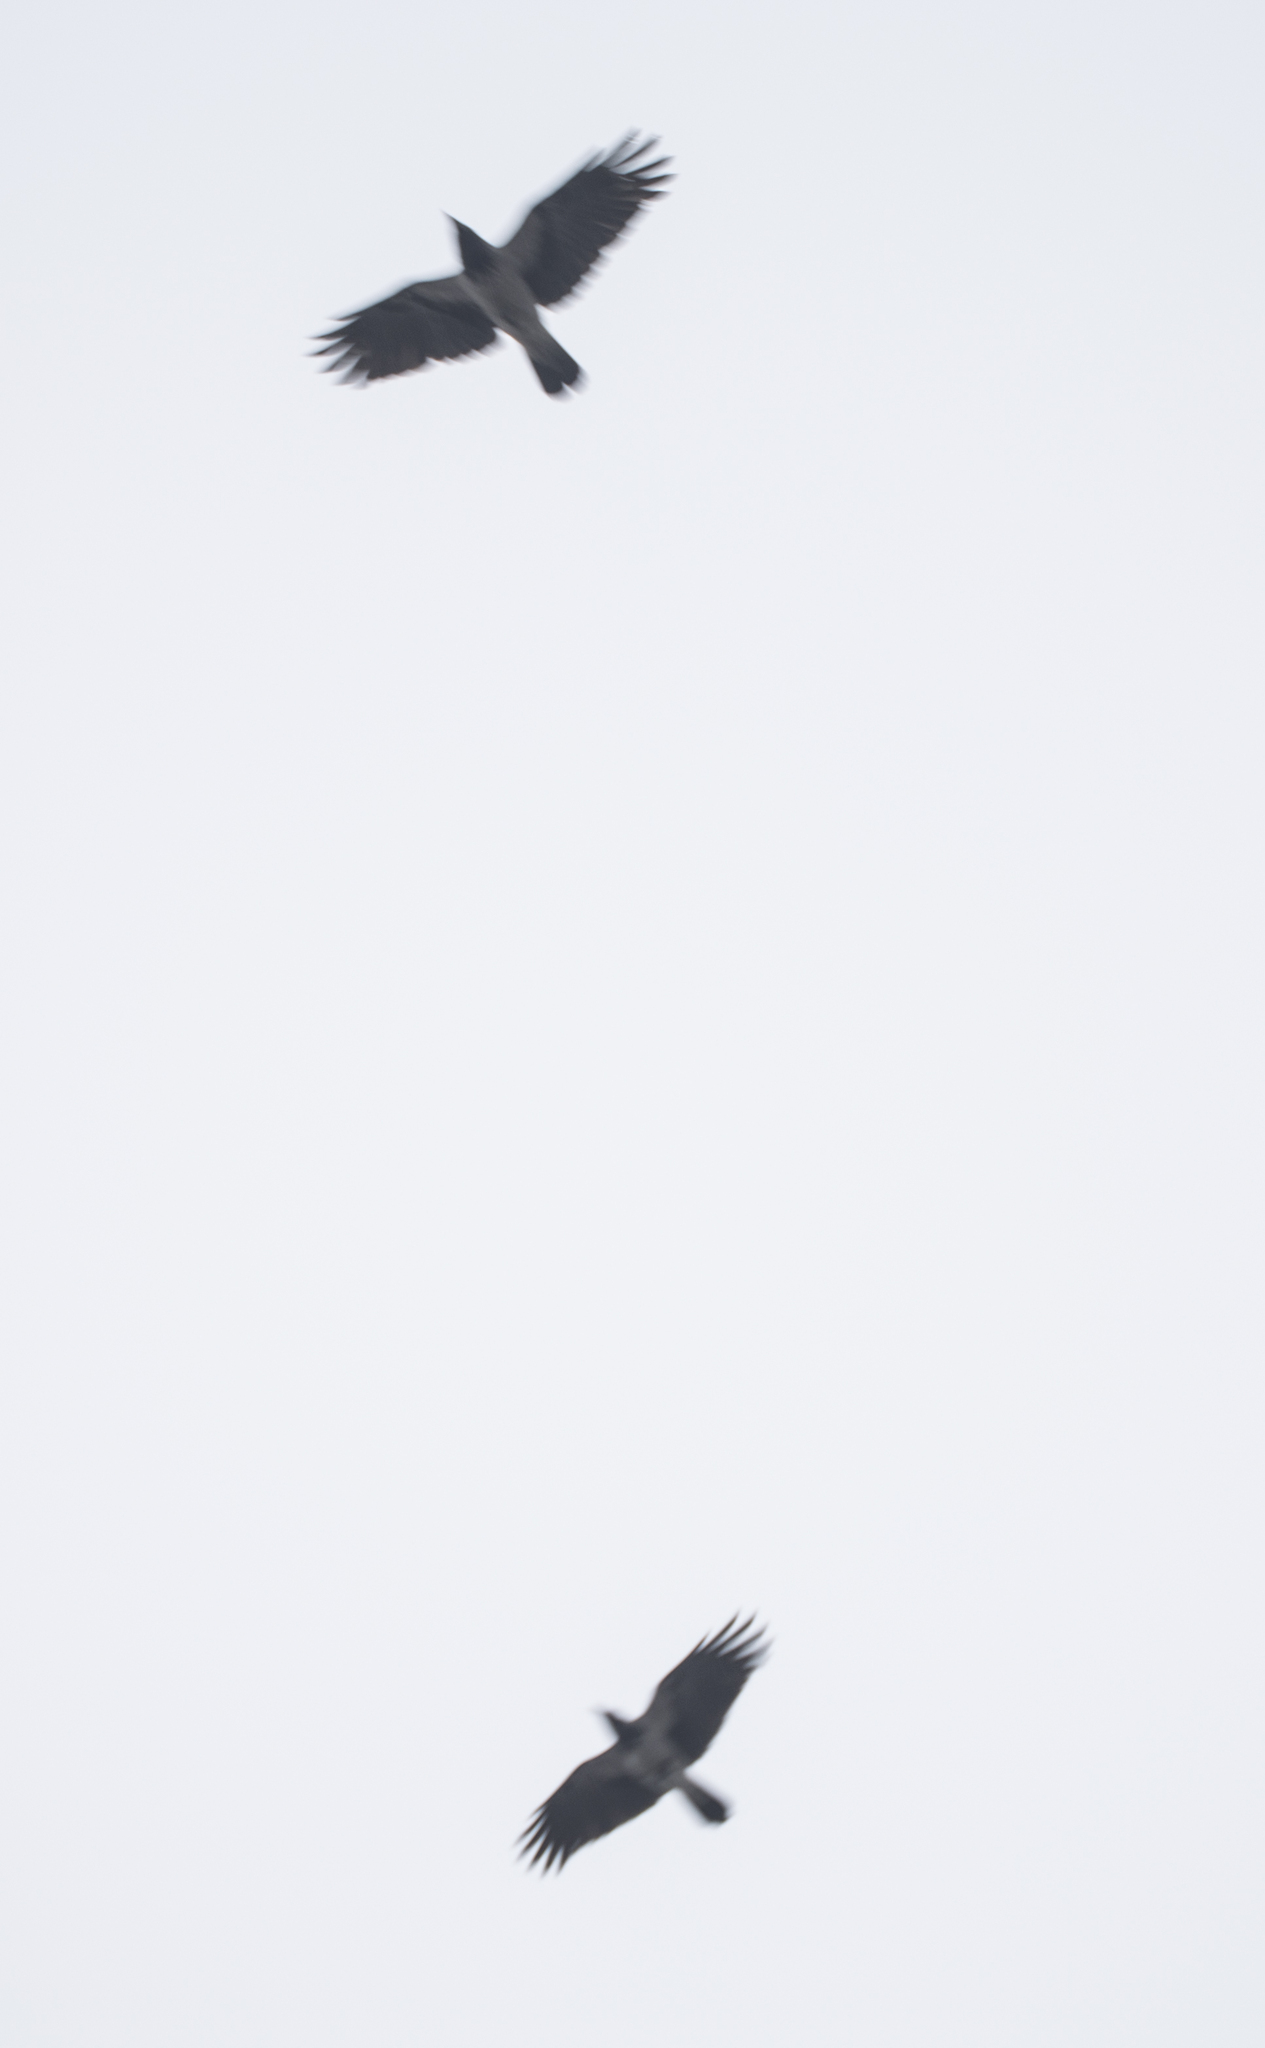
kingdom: Animalia
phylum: Chordata
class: Aves
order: Passeriformes
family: Corvidae
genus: Corvus
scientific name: Corvus cornix
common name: Hooded crow
